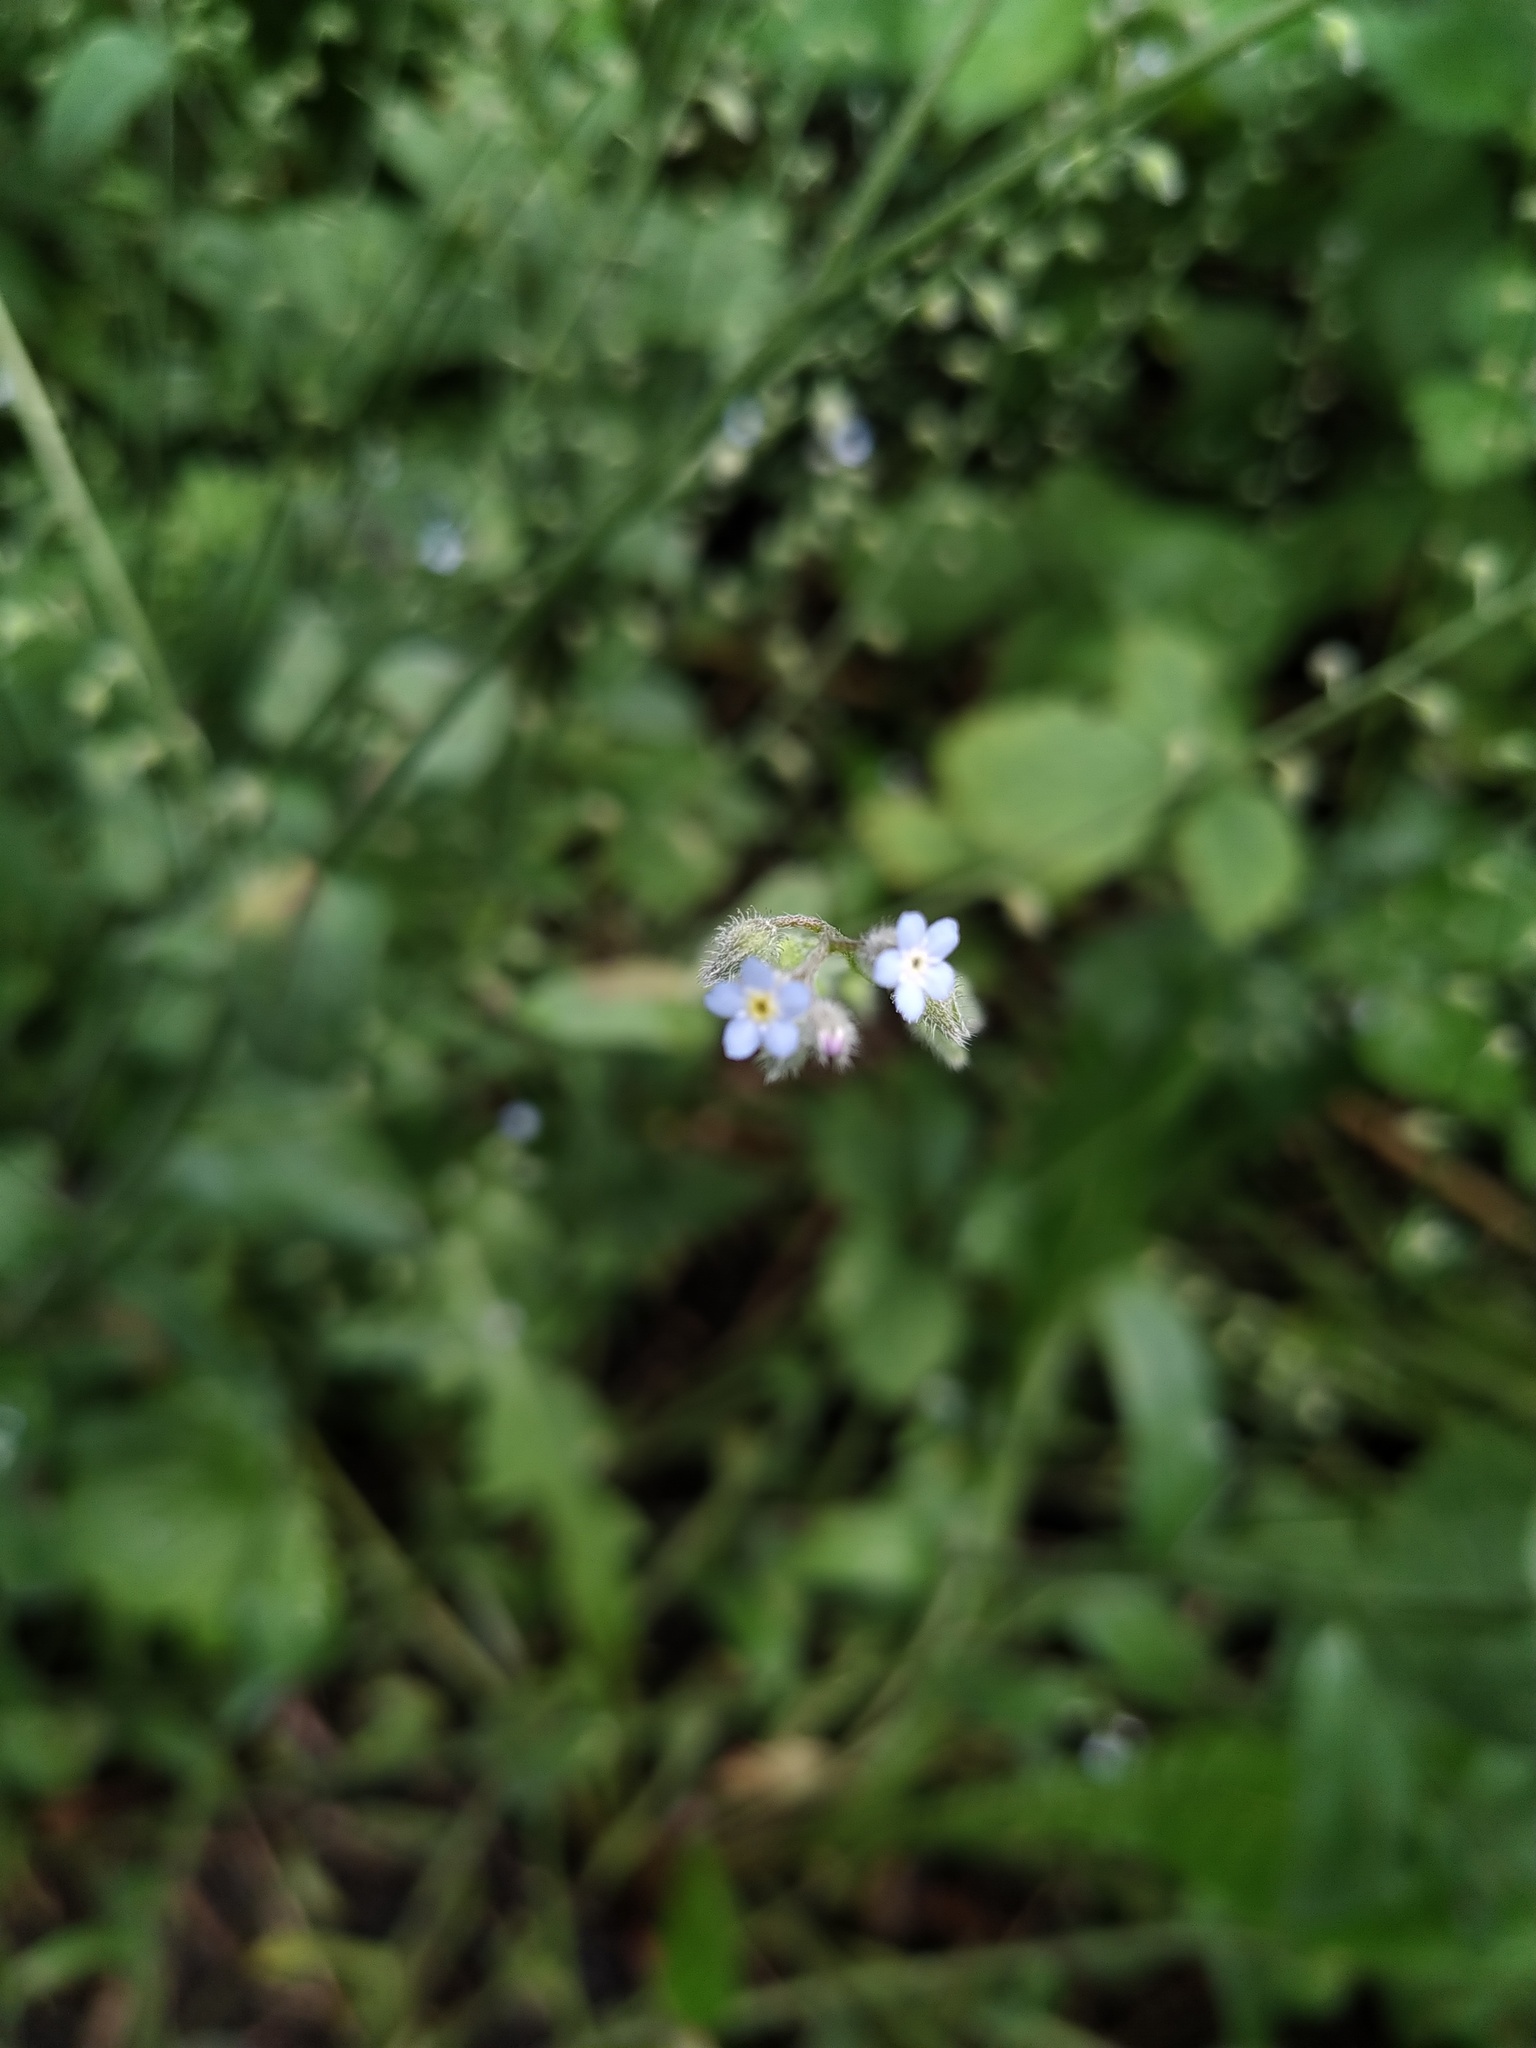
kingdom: Plantae
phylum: Tracheophyta
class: Magnoliopsida
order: Boraginales
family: Boraginaceae
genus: Myosotis
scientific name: Myosotis arvensis
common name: Field forget-me-not
